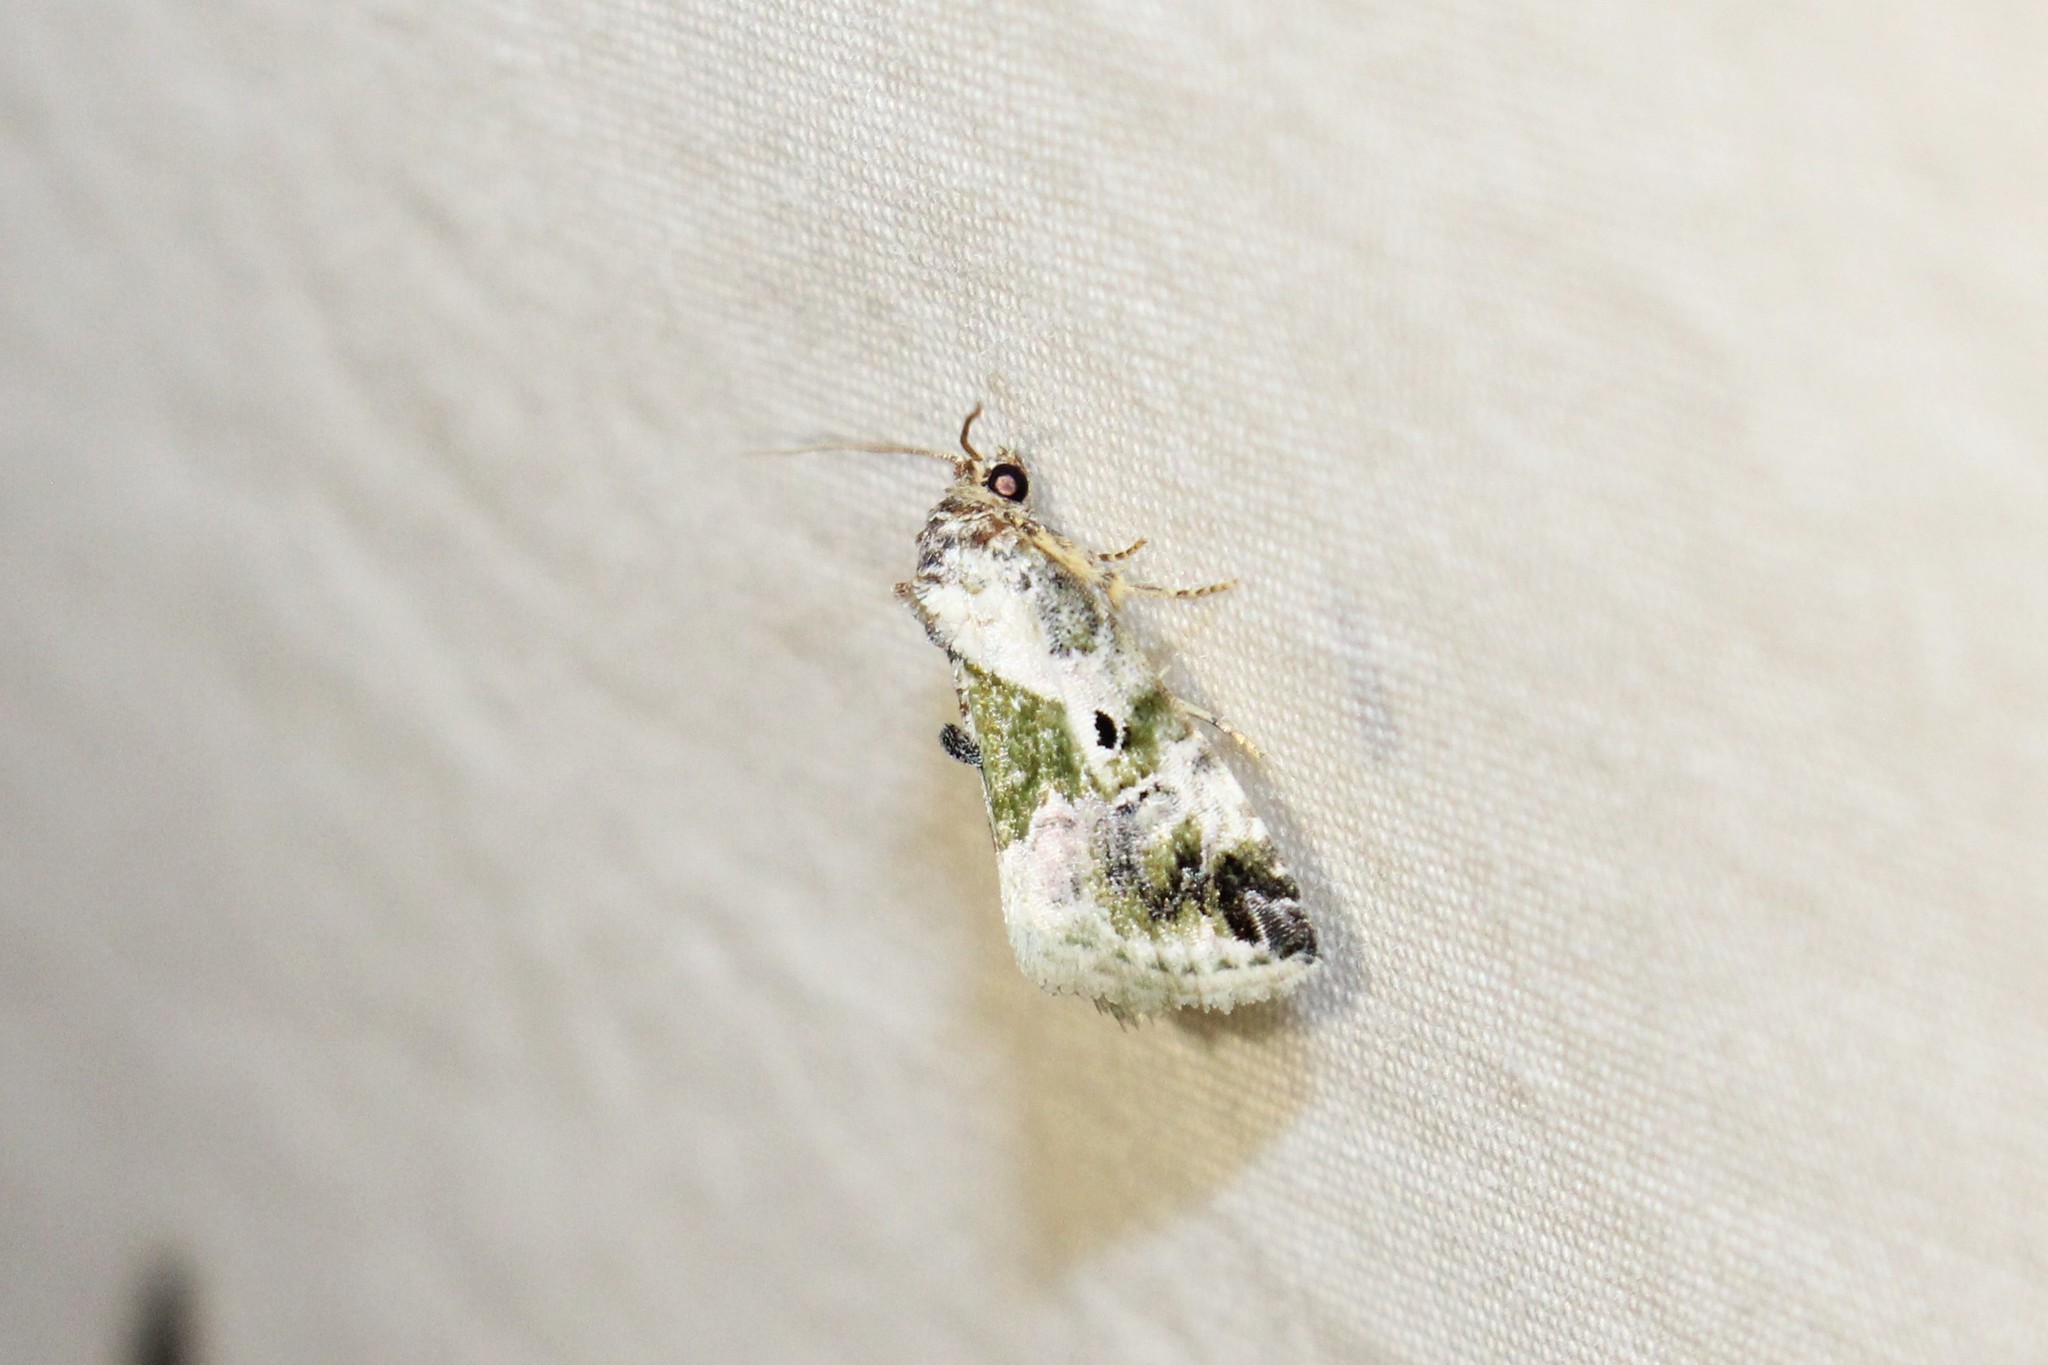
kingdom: Animalia
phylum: Arthropoda
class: Insecta
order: Lepidoptera
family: Noctuidae
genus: Maliattha
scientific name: Maliattha synochitis
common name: Black-dotted glyph
